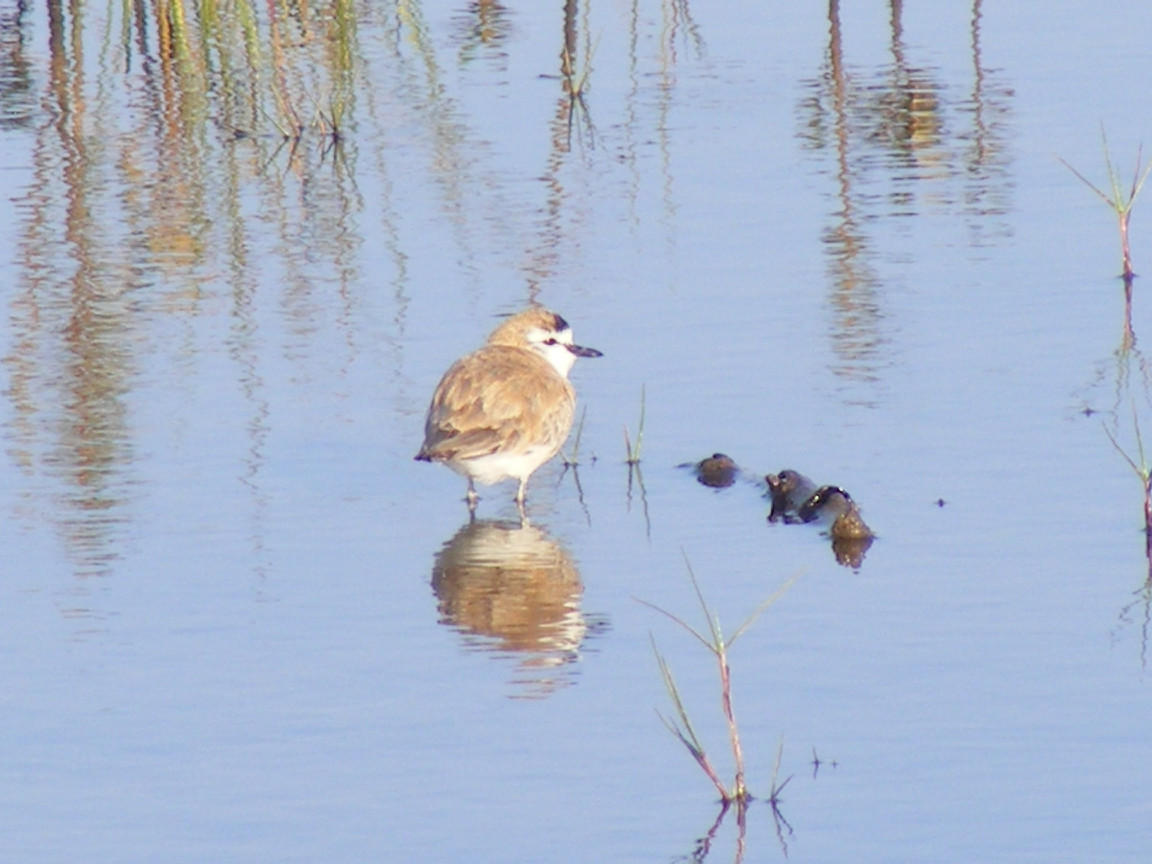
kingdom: Animalia
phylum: Chordata
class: Aves
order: Charadriiformes
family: Charadriidae
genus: Anarhynchus
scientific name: Anarhynchus
